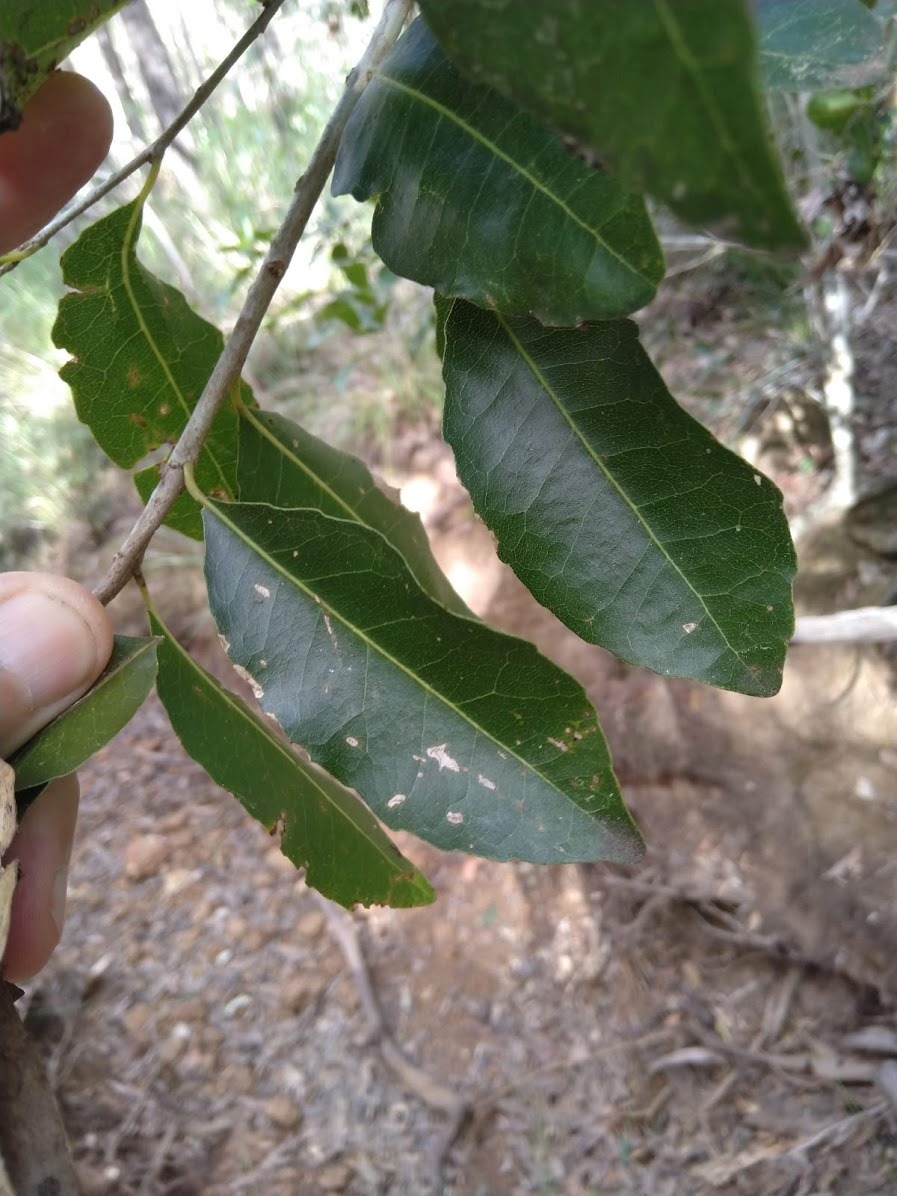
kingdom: Plantae
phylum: Tracheophyta
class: Magnoliopsida
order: Malpighiales
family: Putranjivaceae
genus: Drypetes
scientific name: Drypetes deplanchei
